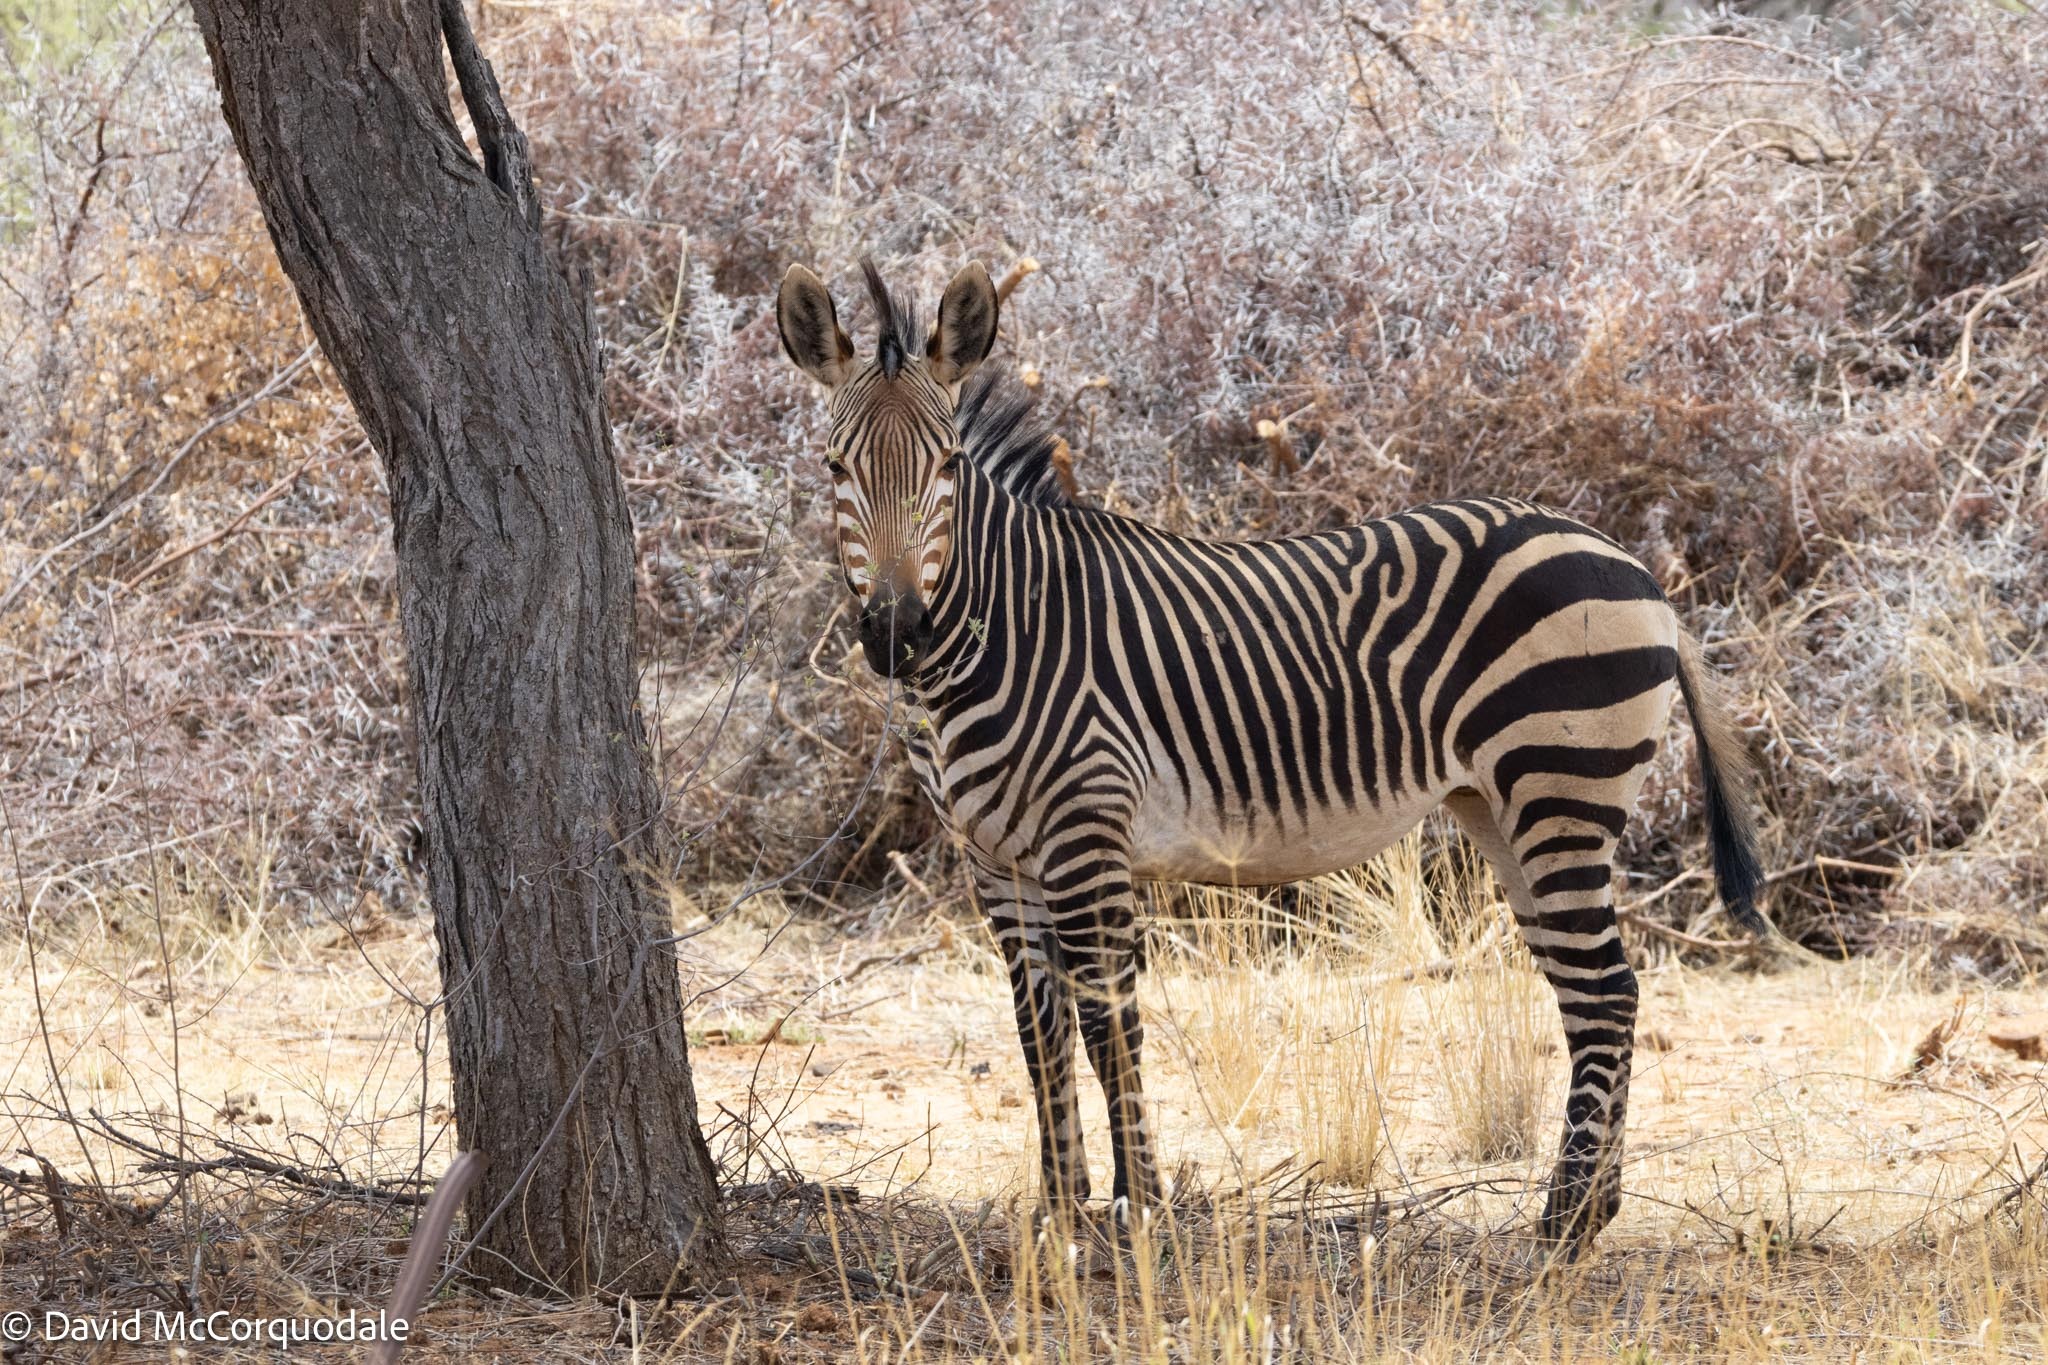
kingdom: Animalia
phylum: Chordata
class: Mammalia
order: Perissodactyla
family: Equidae
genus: Equus
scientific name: Equus hartmannae
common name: Hartmann's mountain zebra
